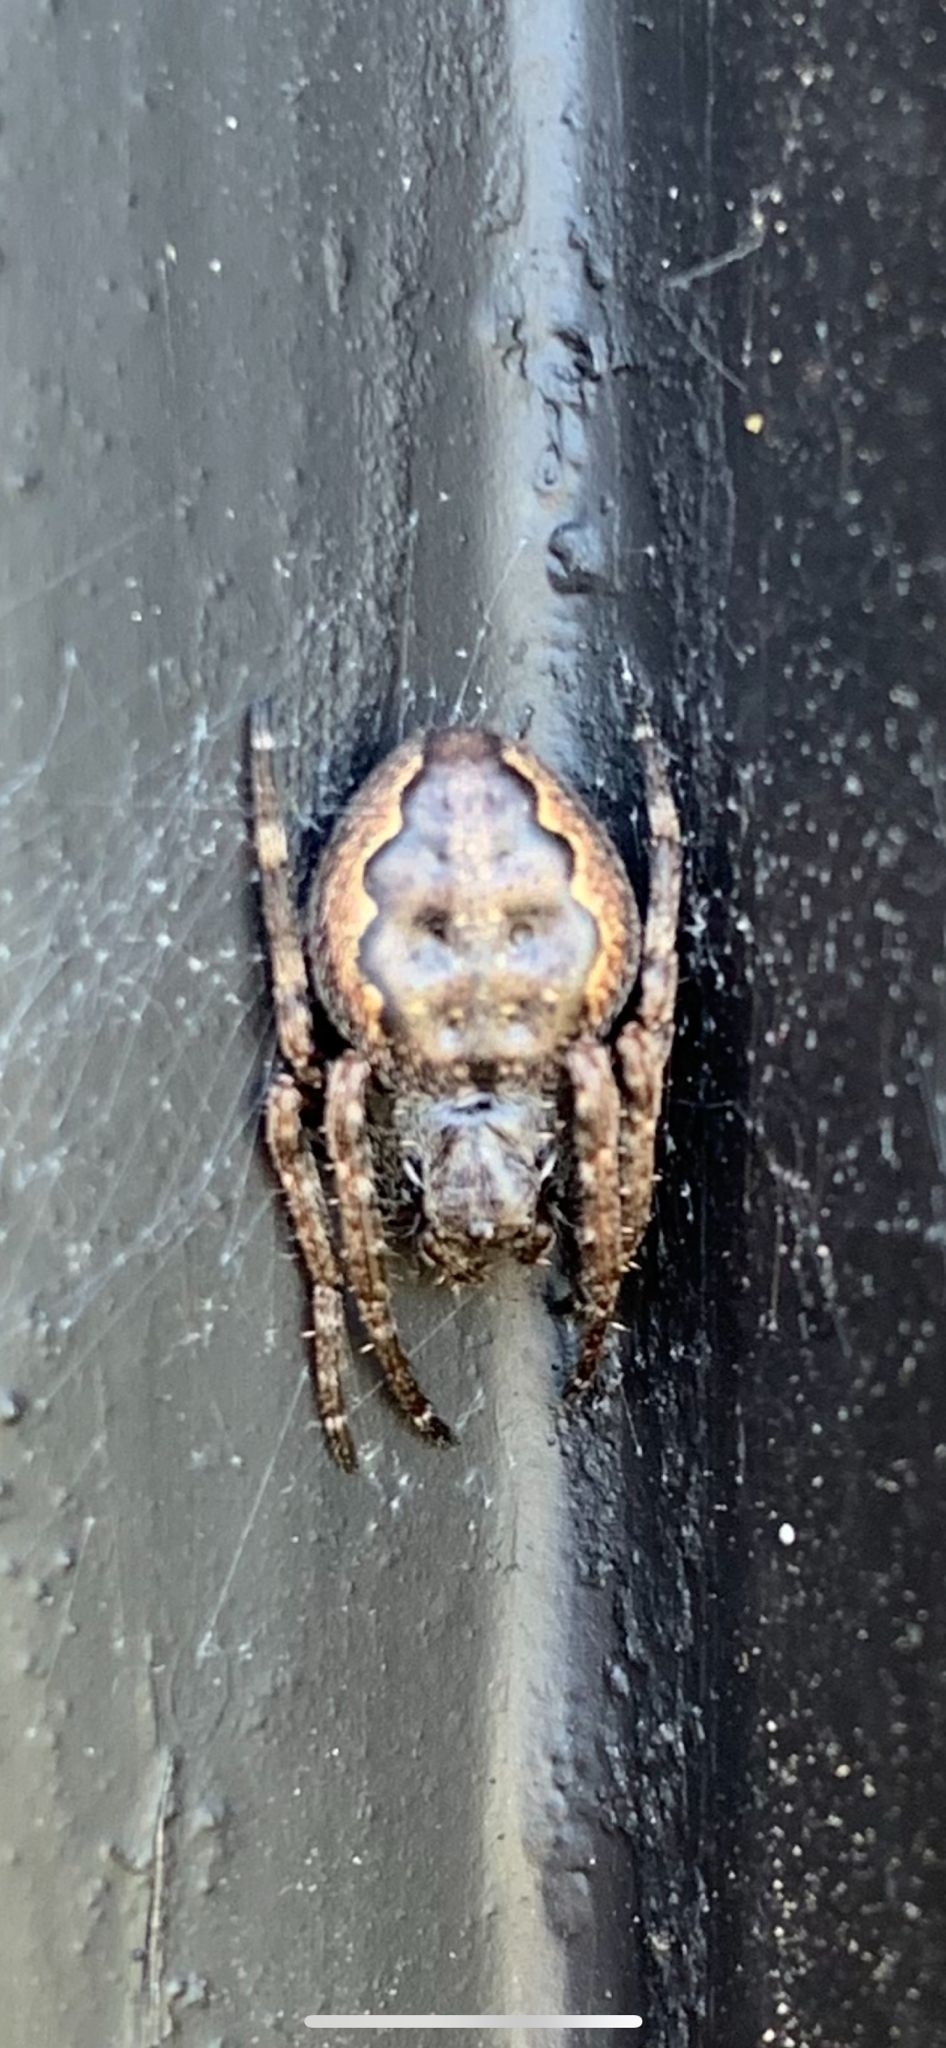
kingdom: Animalia
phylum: Arthropoda
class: Arachnida
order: Araneae
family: Araneidae
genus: Nuctenea
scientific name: Nuctenea umbratica
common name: Toad spider
